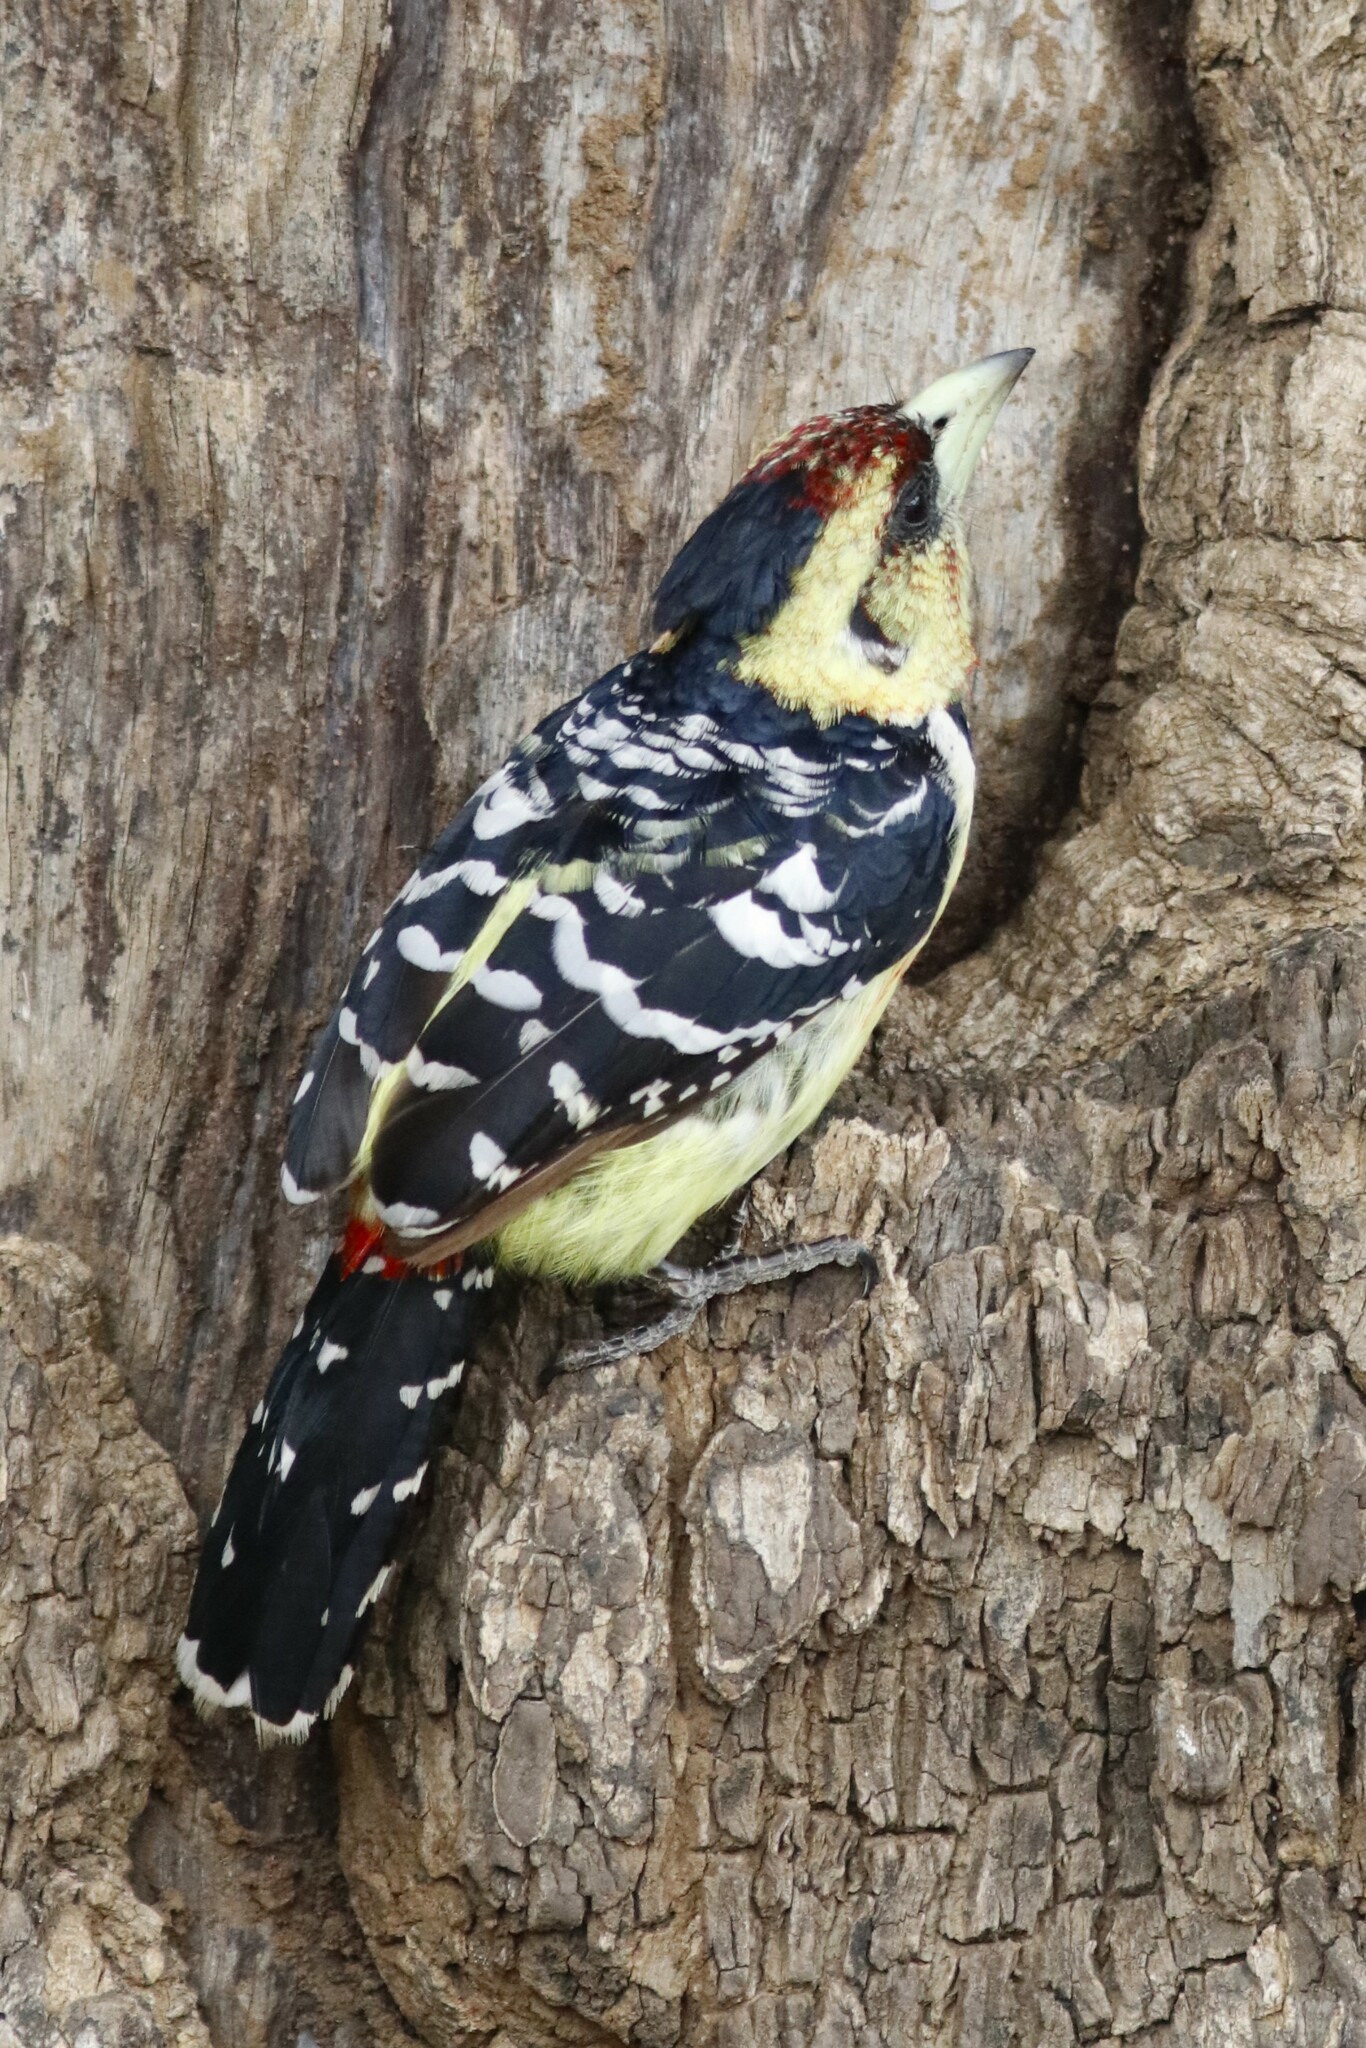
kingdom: Animalia
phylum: Chordata
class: Aves
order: Piciformes
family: Lybiidae
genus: Trachyphonus
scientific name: Trachyphonus vaillantii
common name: Crested barbet
